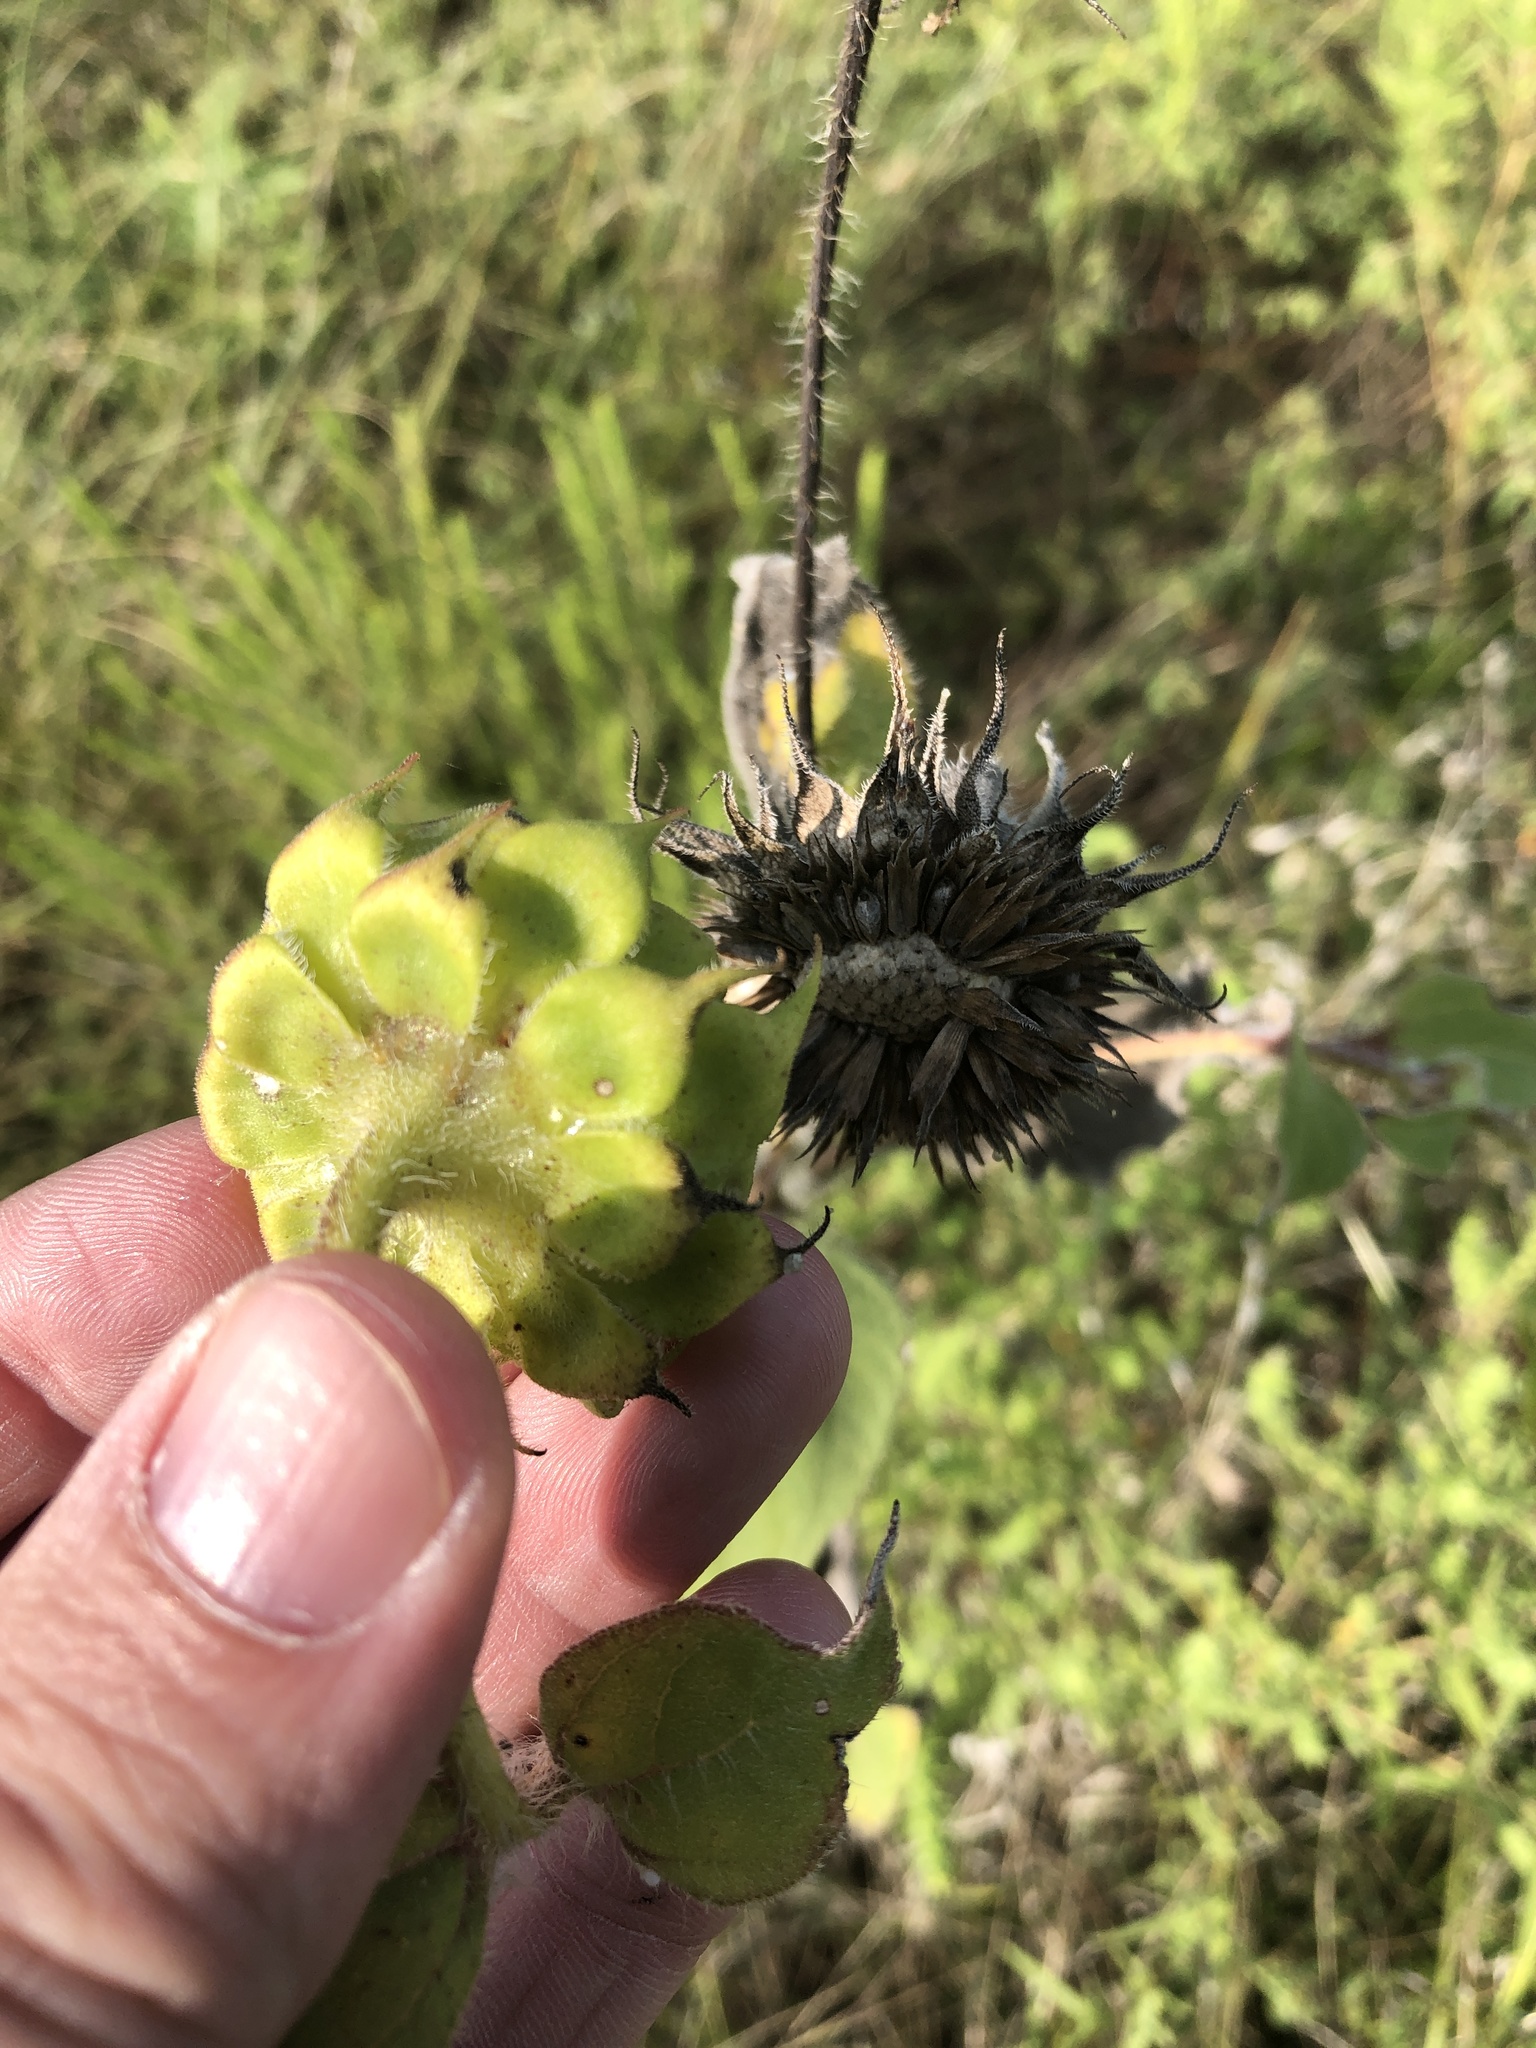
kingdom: Plantae
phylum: Tracheophyta
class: Magnoliopsida
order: Asterales
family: Asteraceae
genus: Helianthus
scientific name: Helianthus annuus
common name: Sunflower
